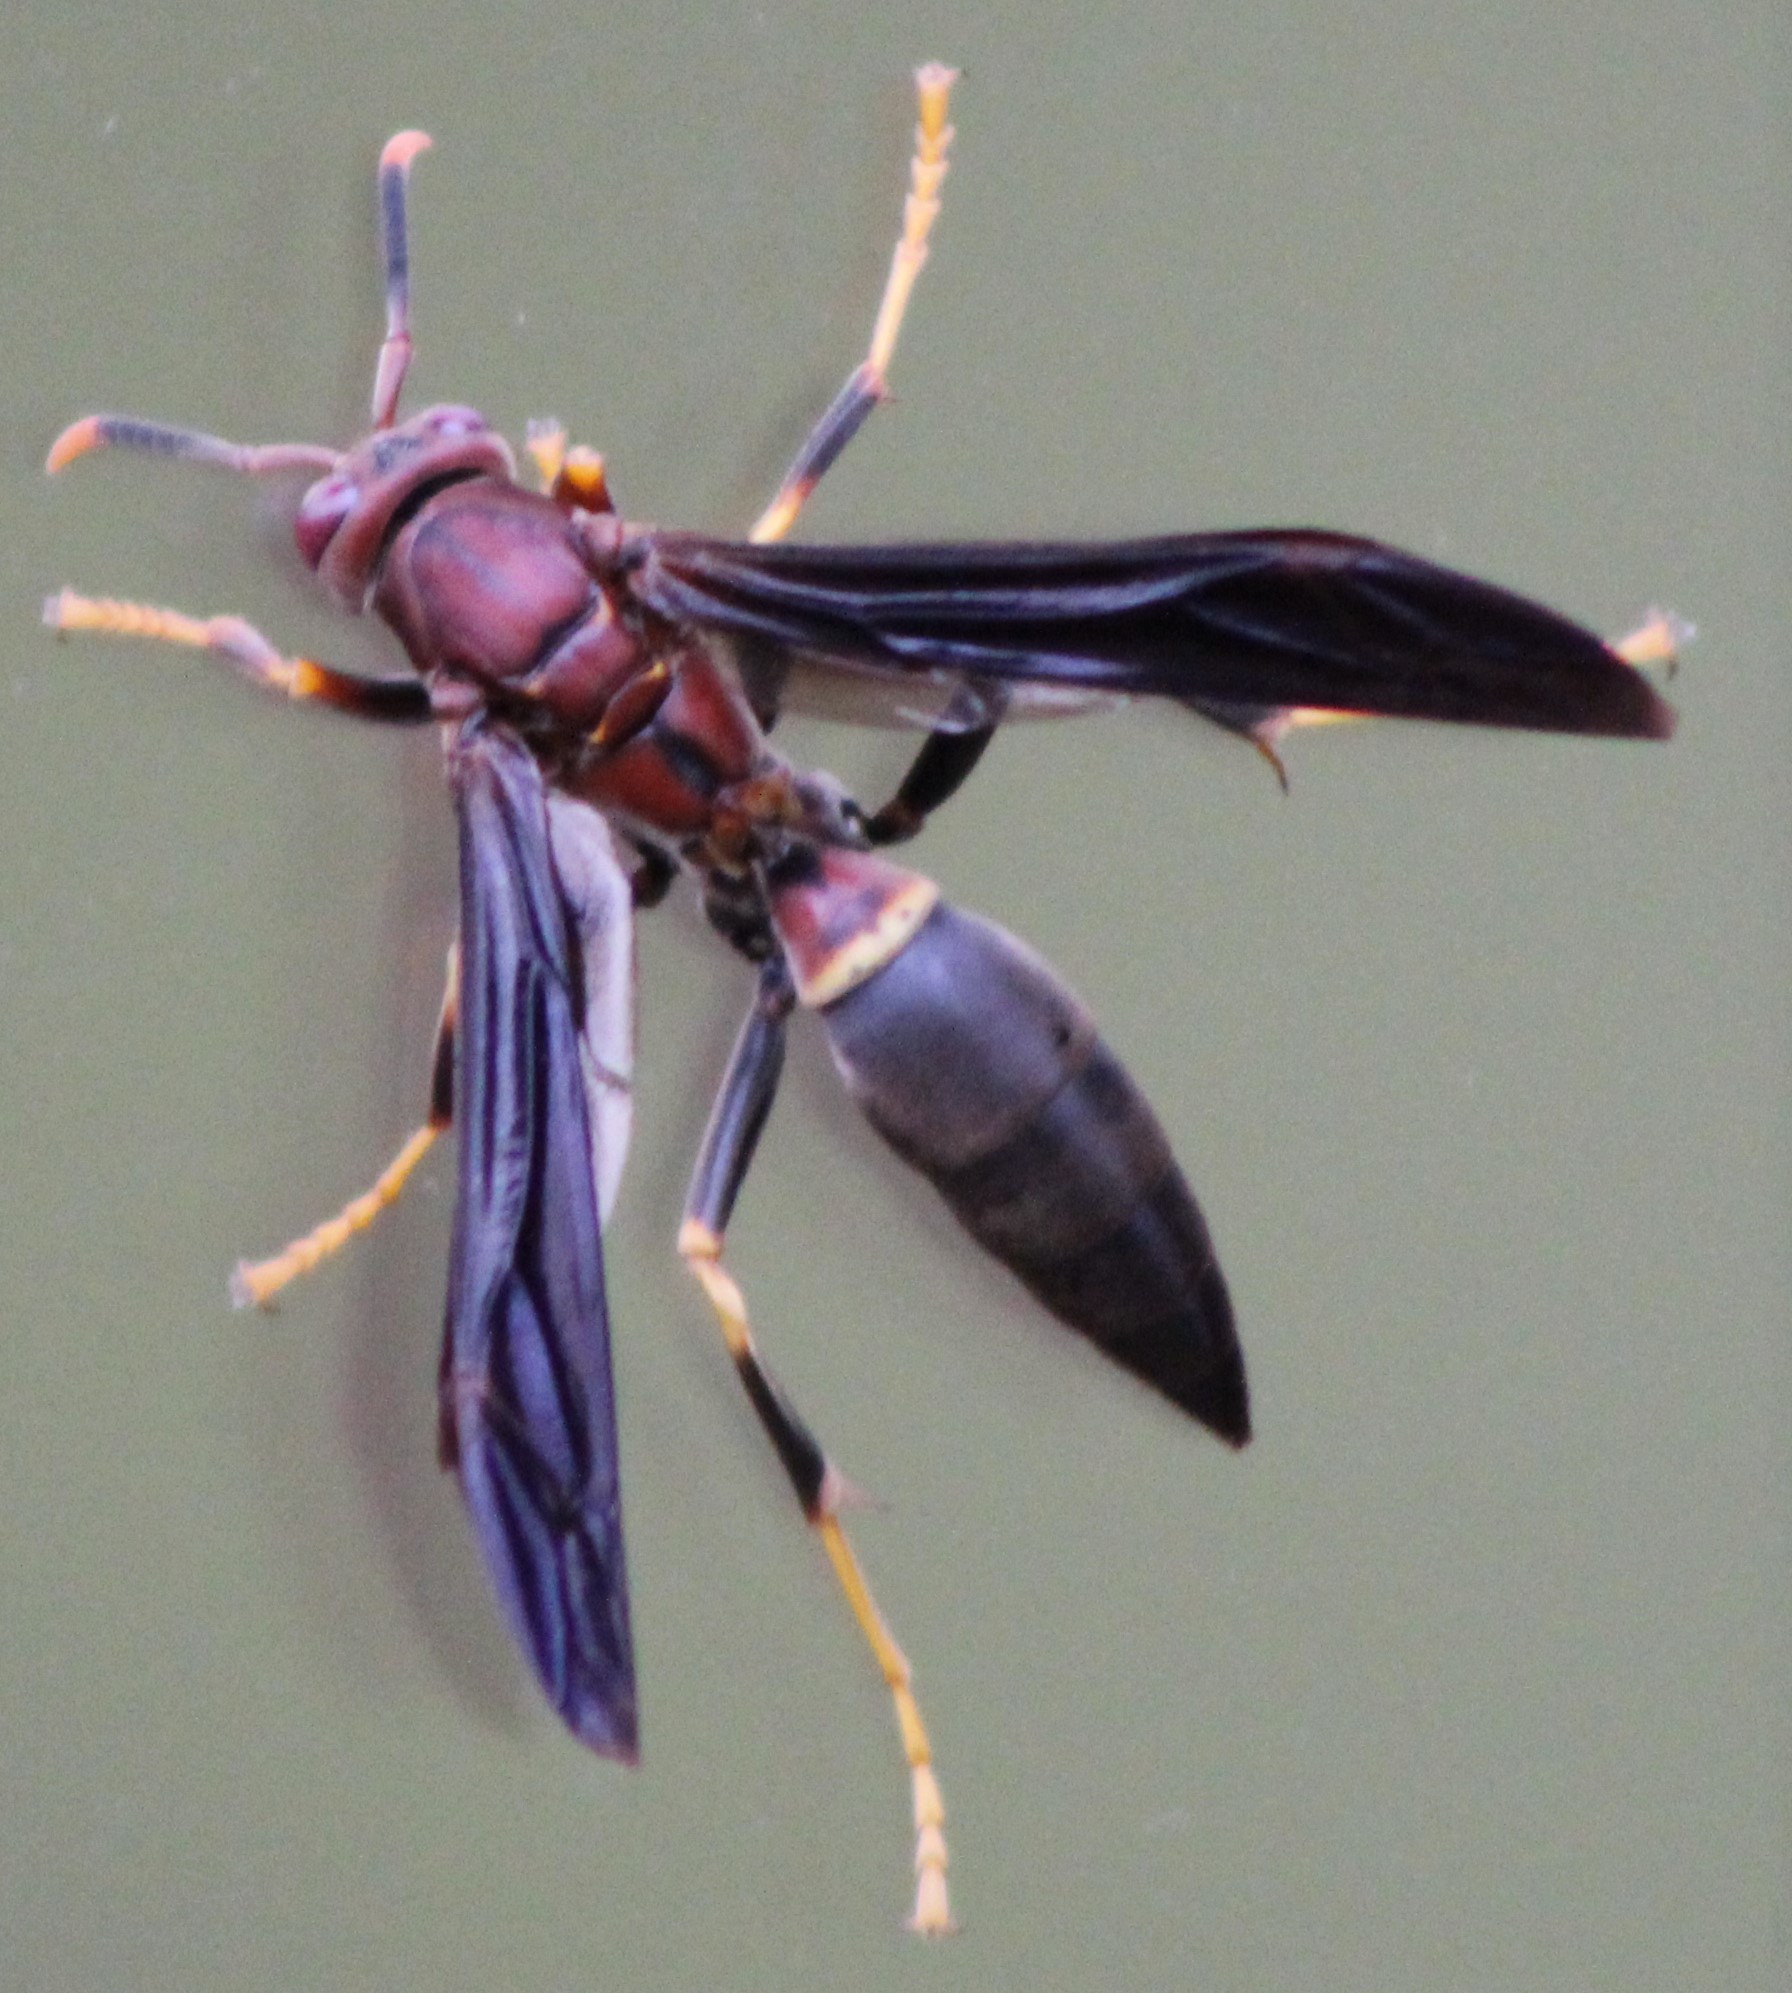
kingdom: Animalia
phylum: Arthropoda
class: Insecta
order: Hymenoptera
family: Eumenidae
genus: Polistes
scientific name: Polistes annularis
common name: Ringed paper wasp
